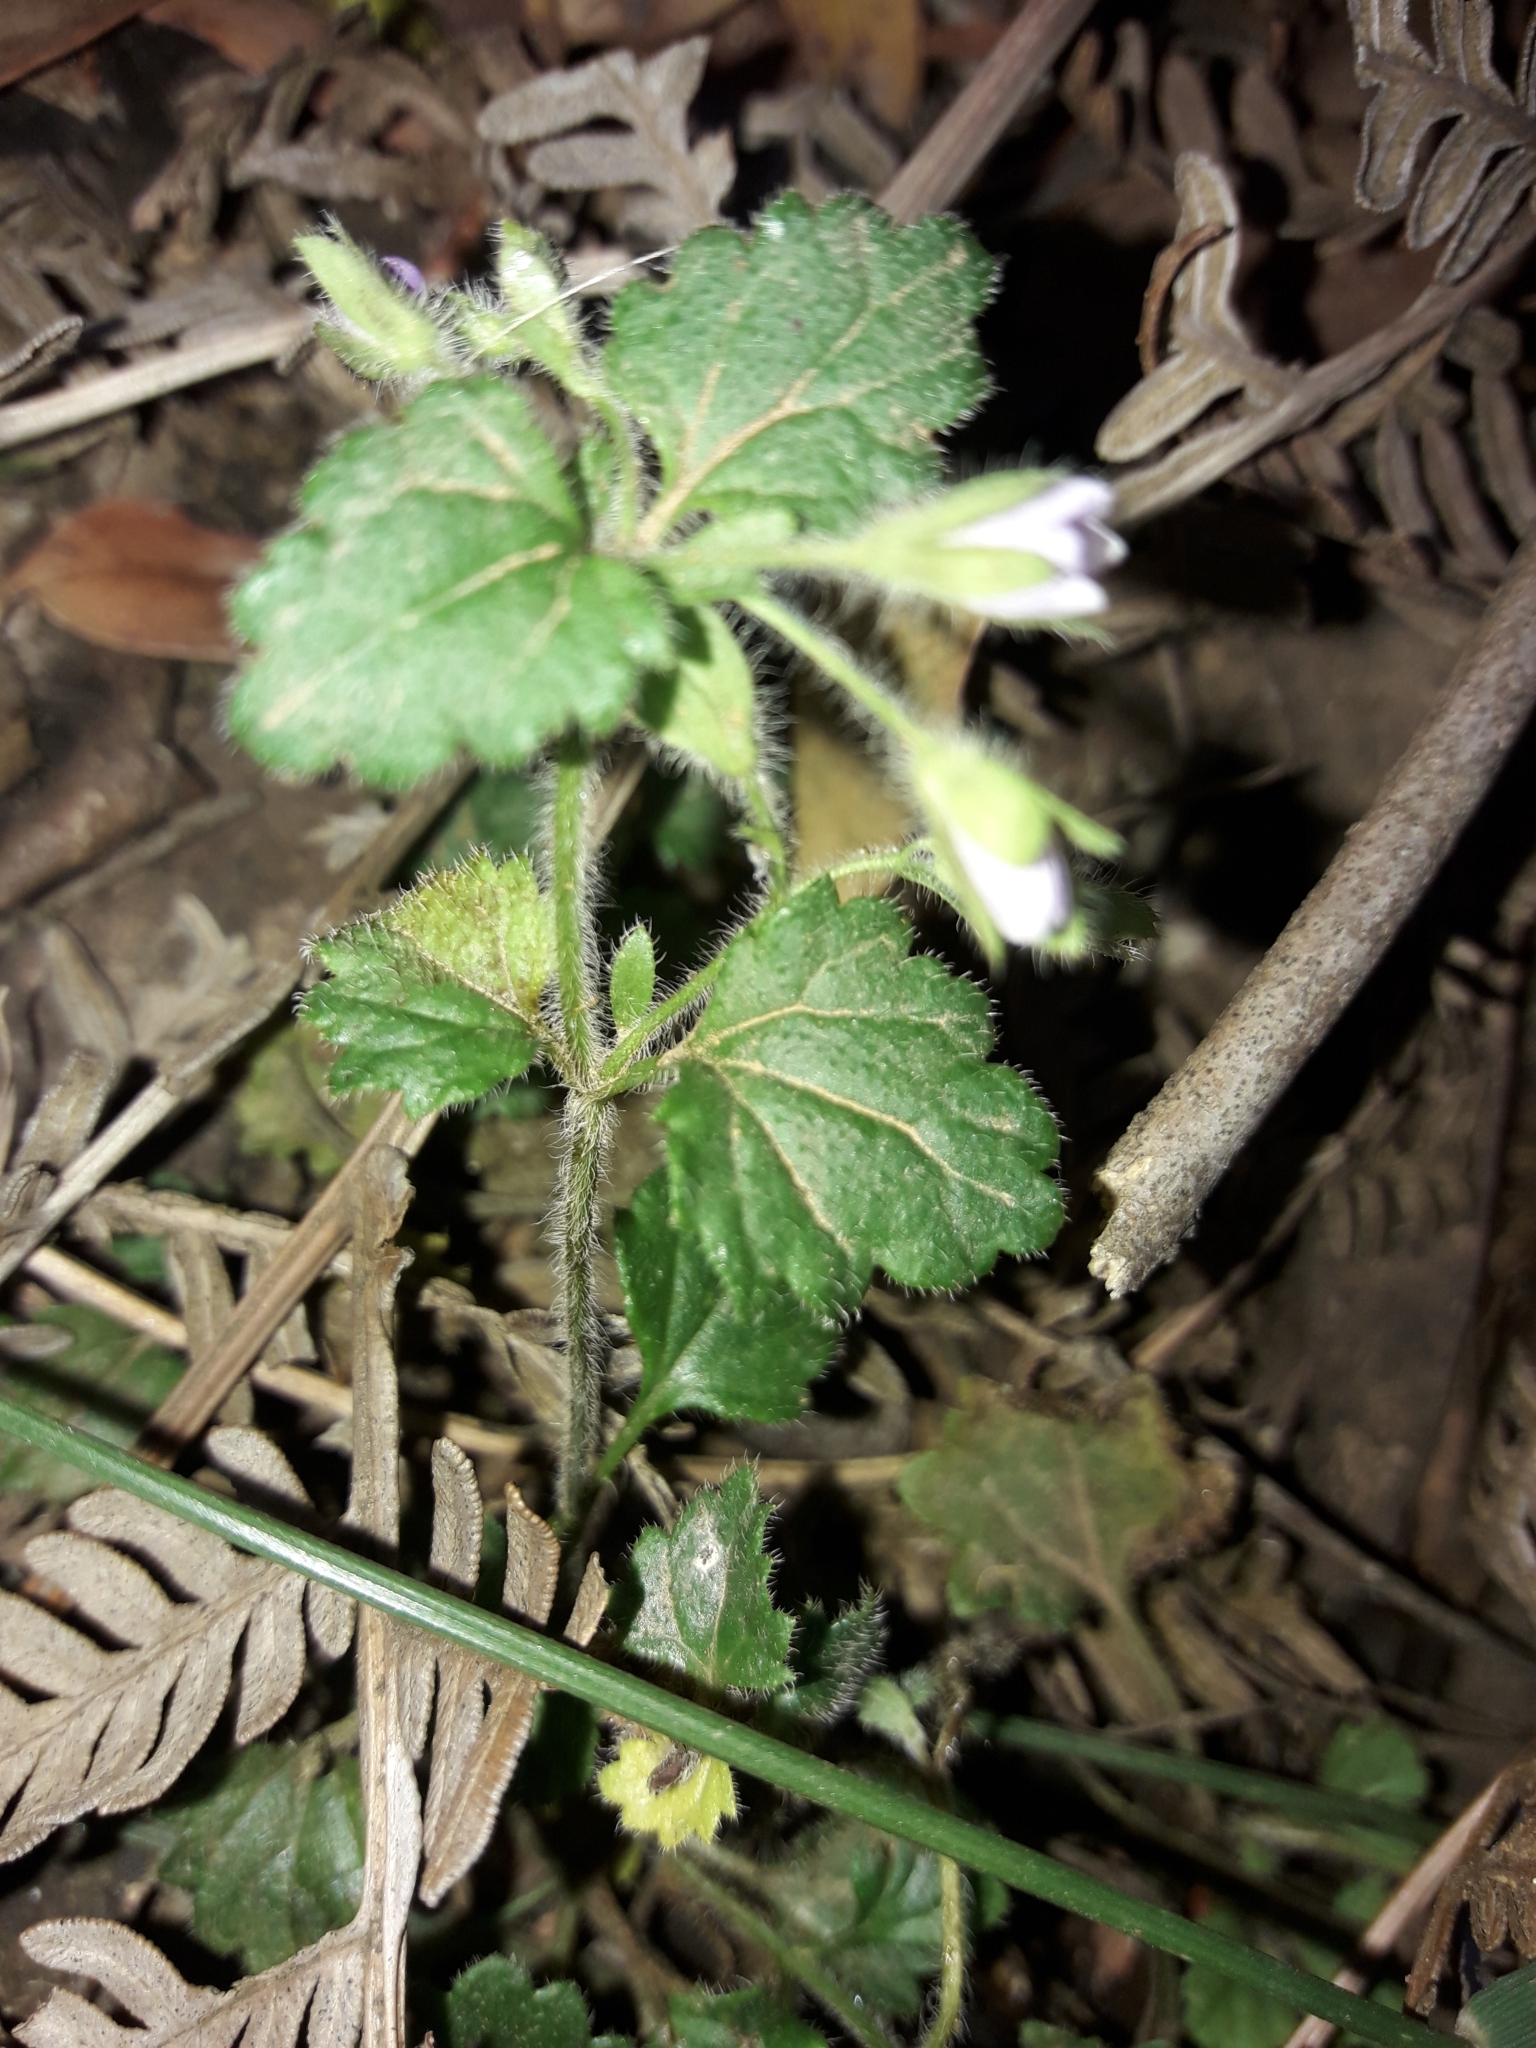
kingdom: Plantae
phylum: Tracheophyta
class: Magnoliopsida
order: Lamiales
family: Plantaginaceae
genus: Veronica
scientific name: Veronica calycina
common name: Cup speedwell
